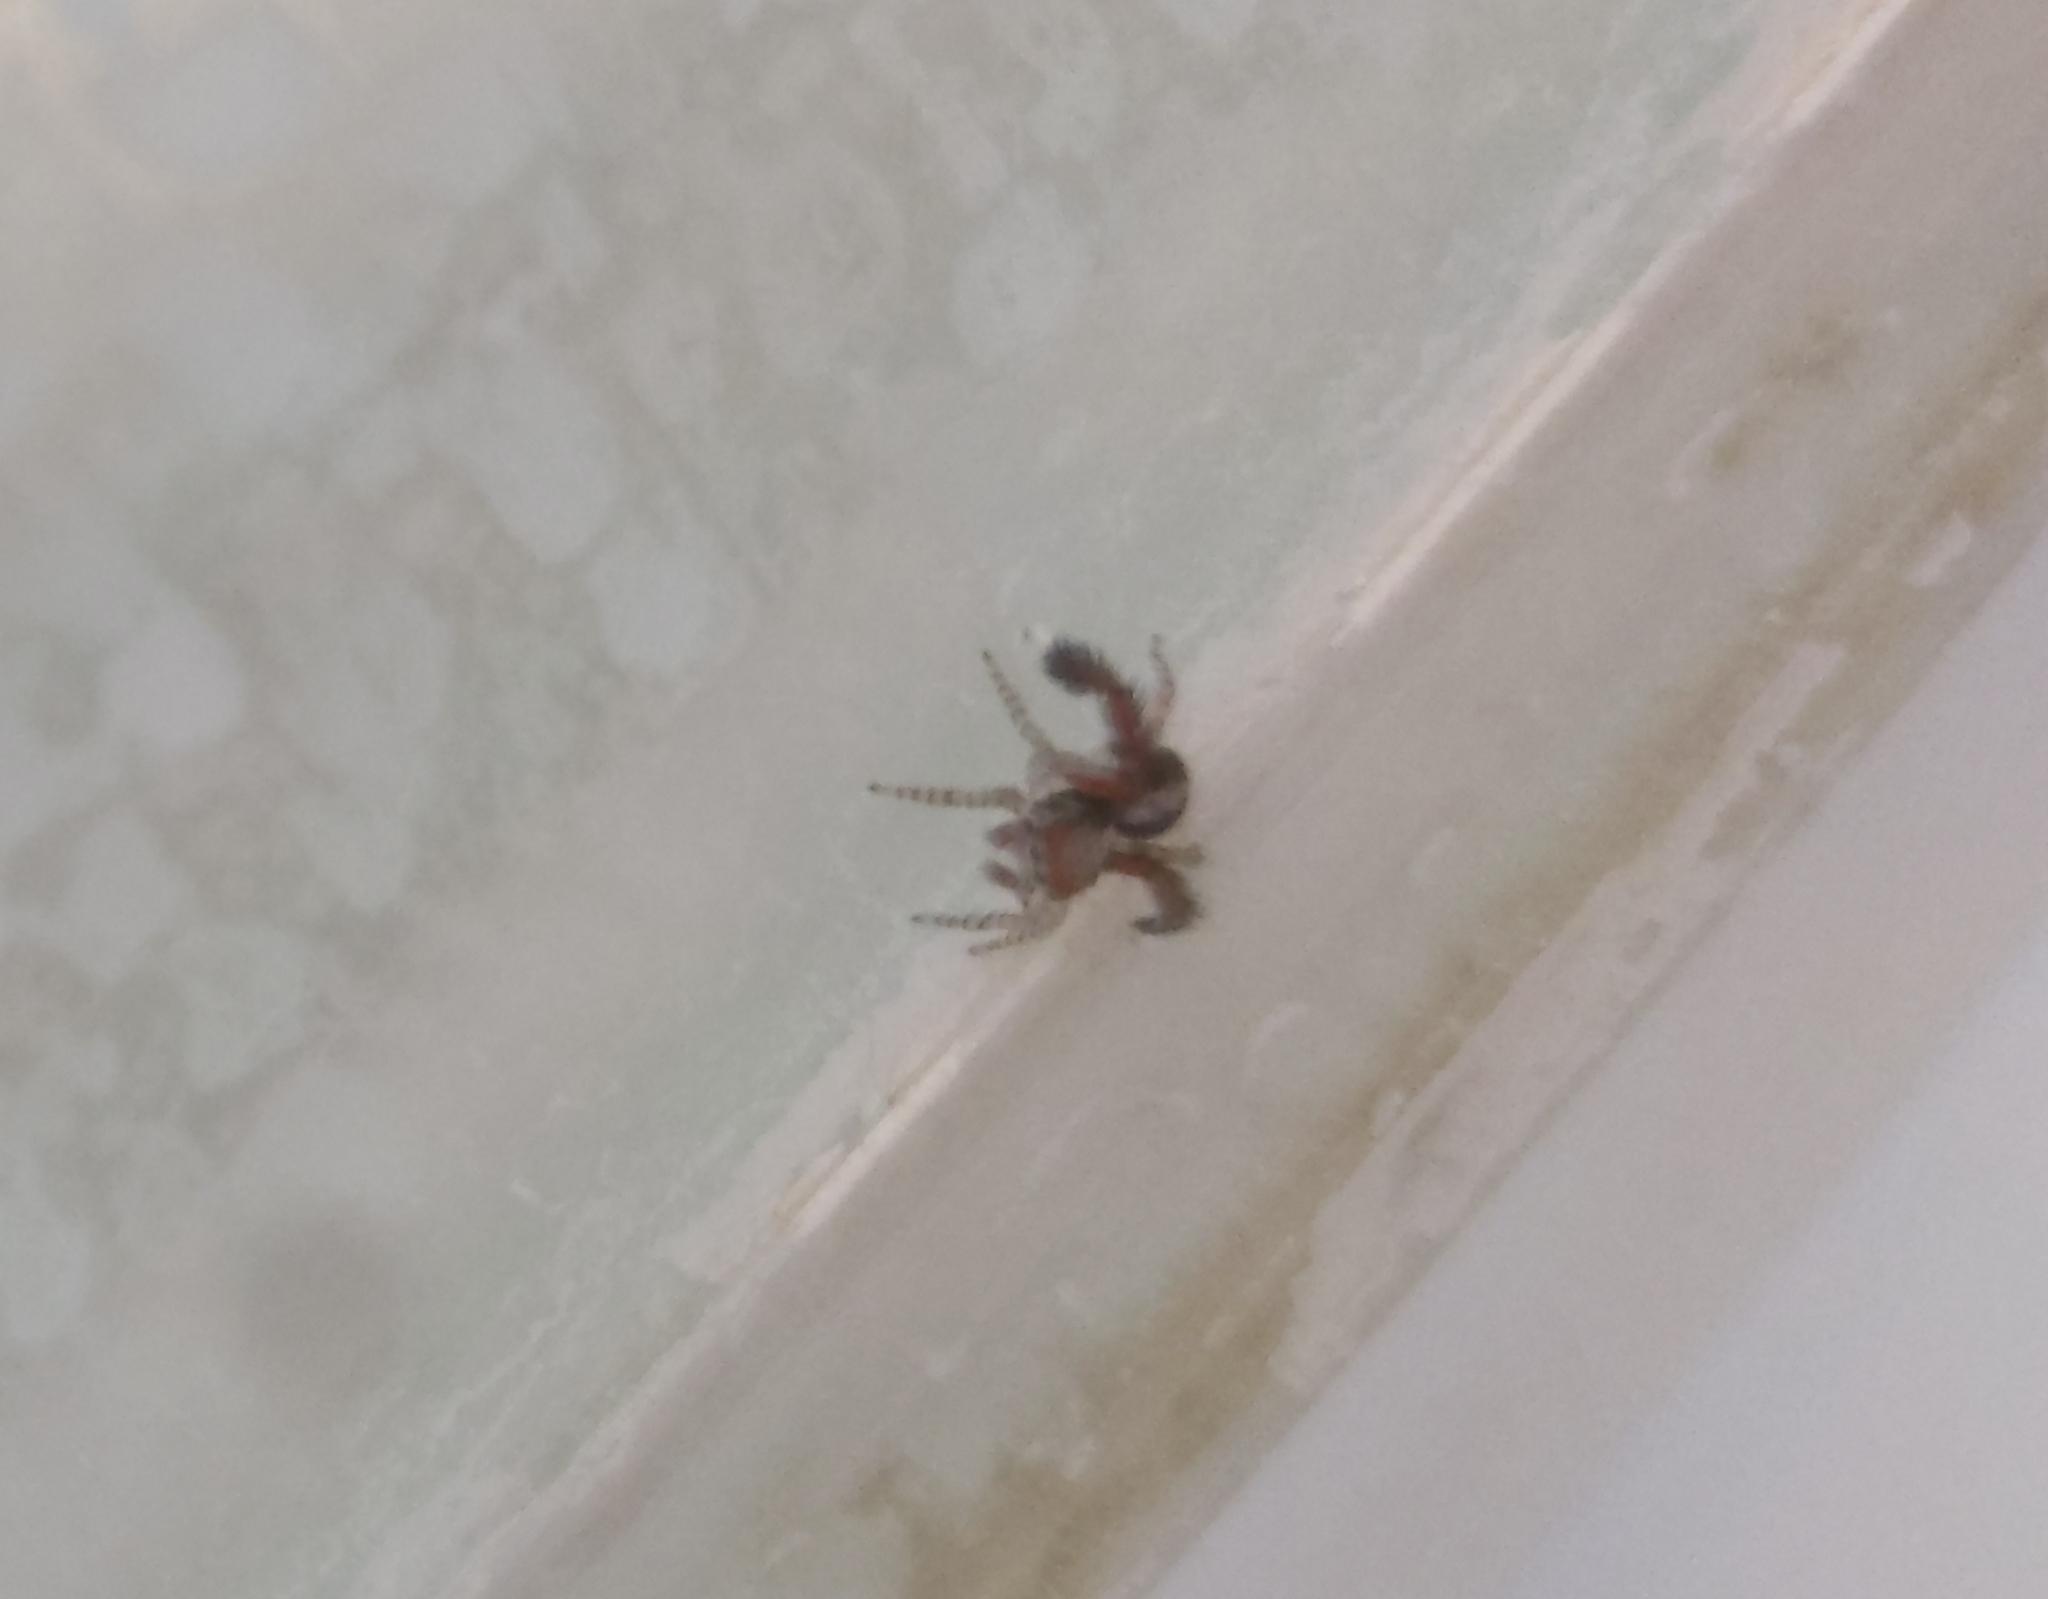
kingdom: Animalia
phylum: Arthropoda
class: Arachnida
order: Araneae
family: Salticidae
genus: Saitis
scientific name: Saitis barbipes
